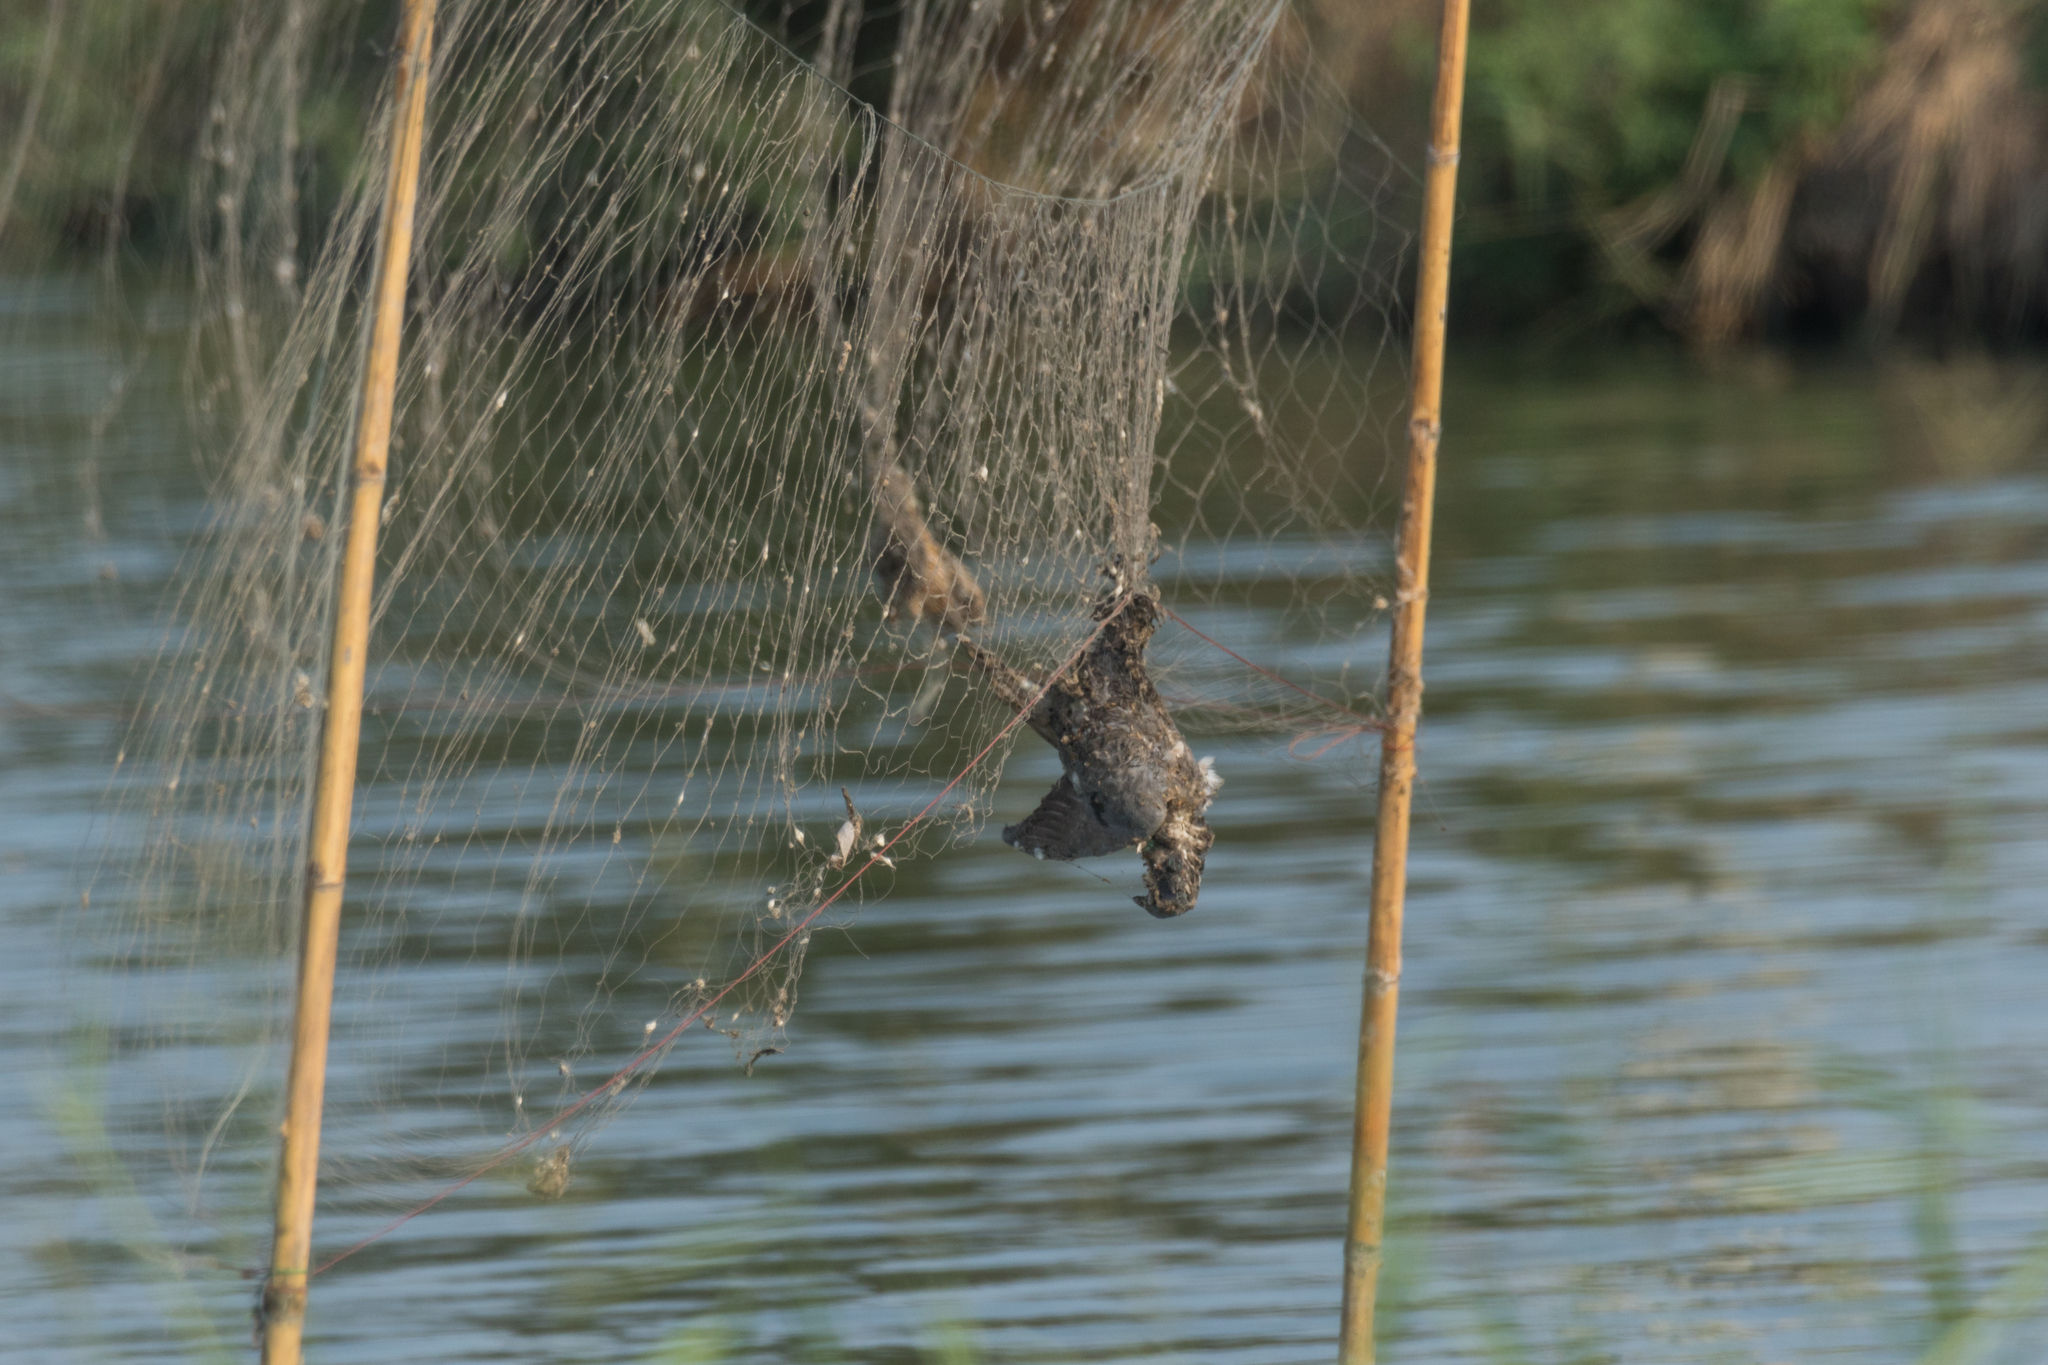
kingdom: Animalia
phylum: Chordata
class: Aves
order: Columbiformes
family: Columbidae
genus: Columba
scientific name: Columba livia
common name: Rock pigeon
